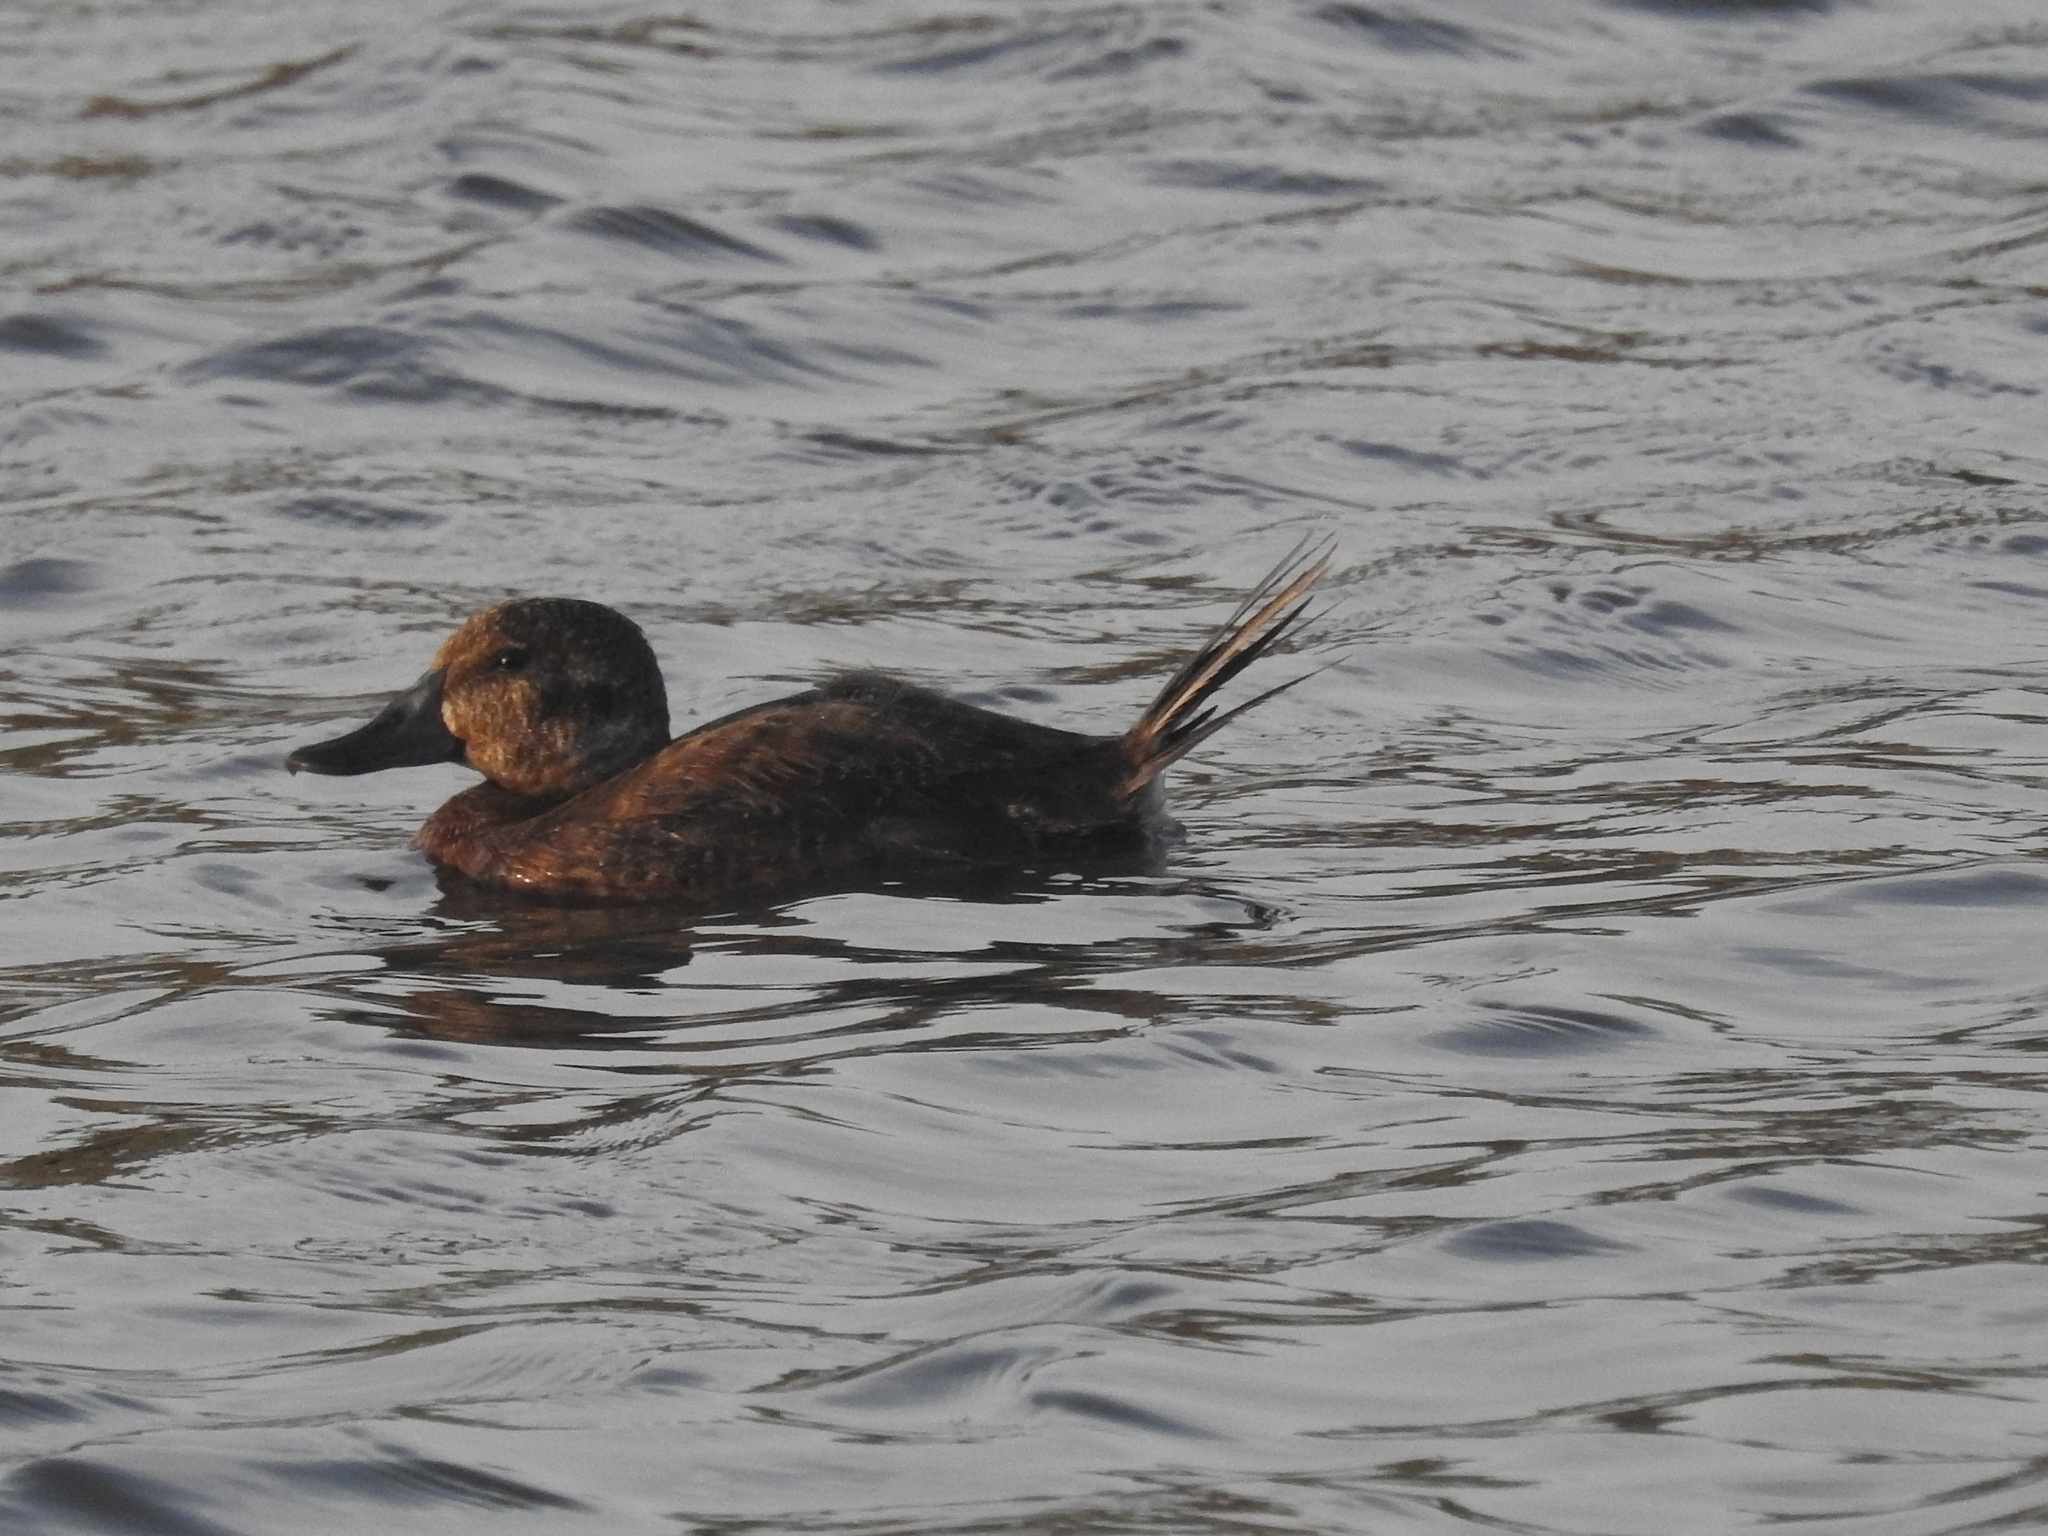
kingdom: Animalia
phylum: Chordata
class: Aves
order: Anseriformes
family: Anatidae
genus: Oxyura
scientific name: Oxyura vittata
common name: Lake duck
